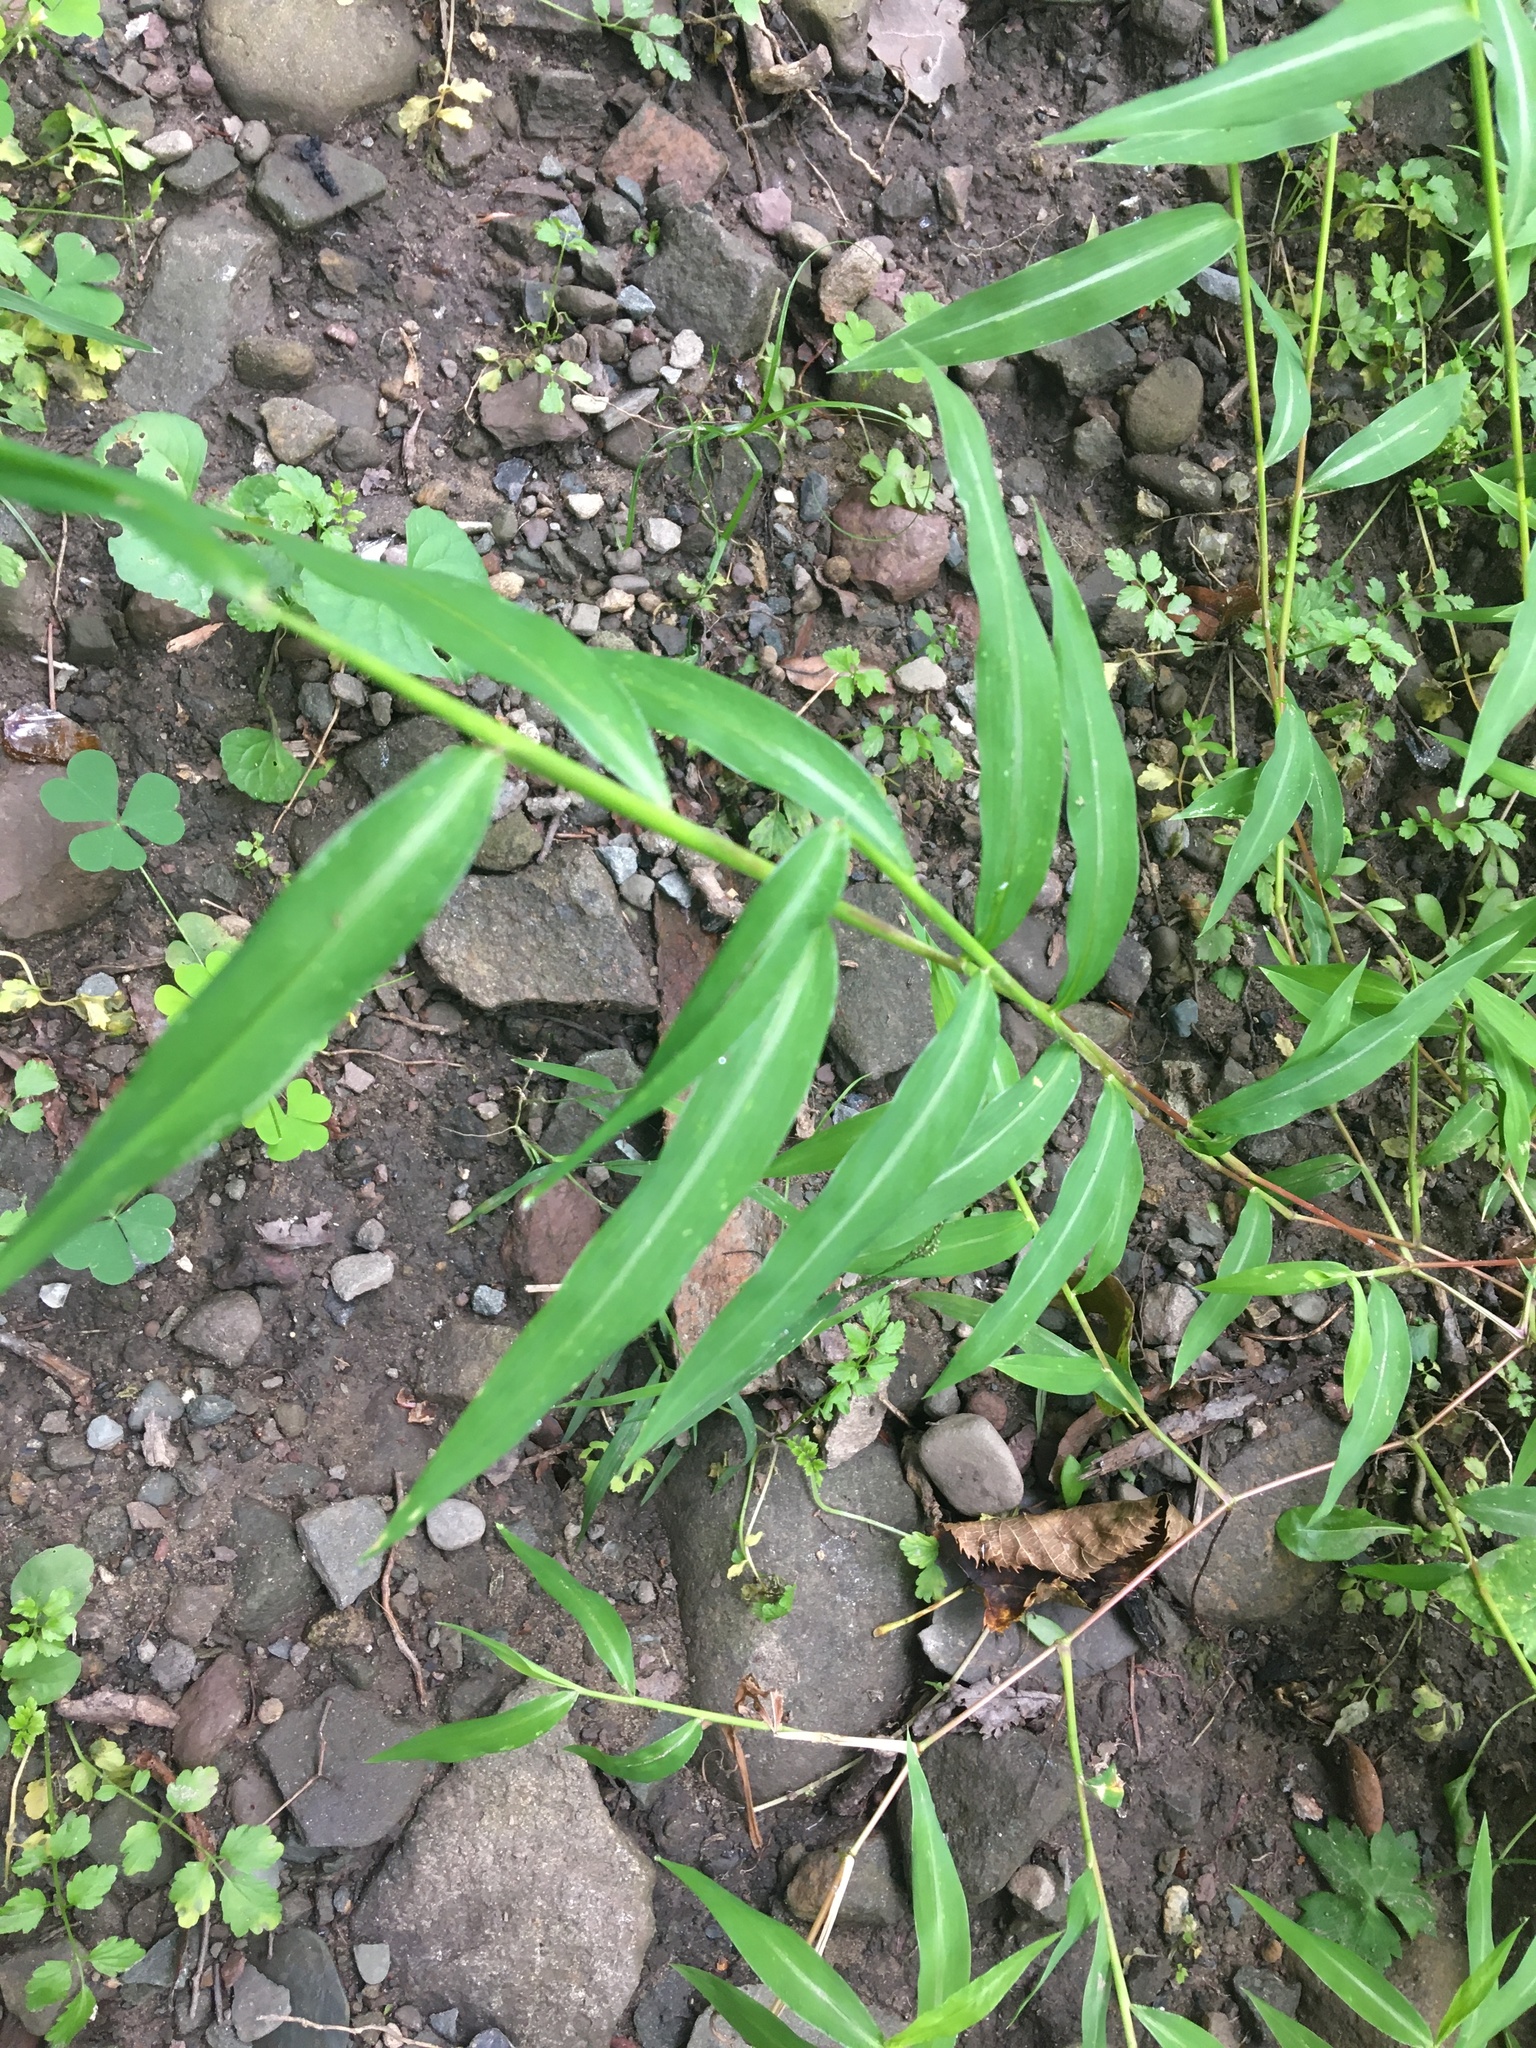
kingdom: Plantae
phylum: Tracheophyta
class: Liliopsida
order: Poales
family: Poaceae
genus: Microstegium
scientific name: Microstegium vimineum
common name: Japanese stiltgrass
